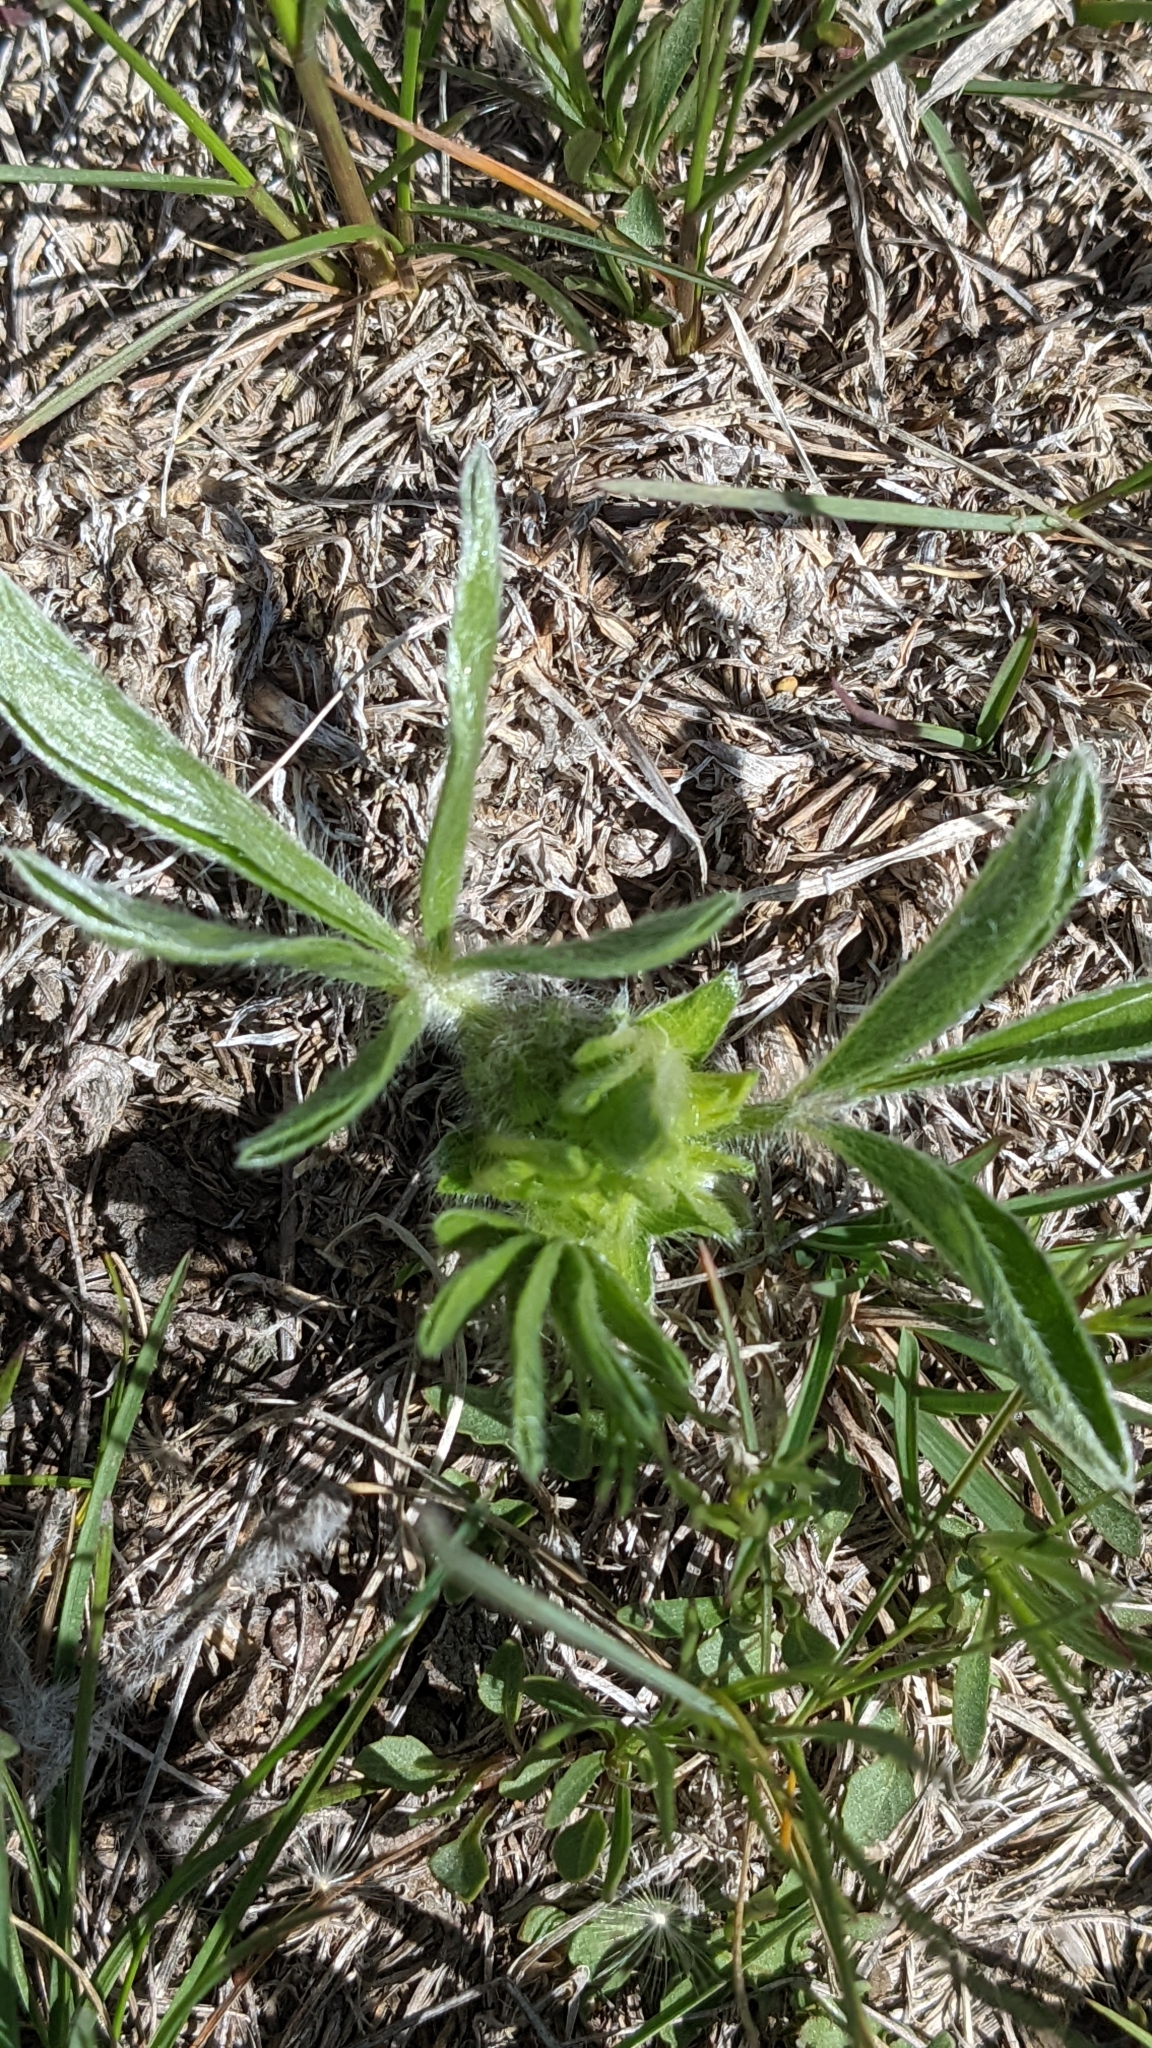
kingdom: Plantae
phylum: Tracheophyta
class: Magnoliopsida
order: Fabales
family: Fabaceae
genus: Pediomelum
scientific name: Pediomelum esculentum
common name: Indian-turnip
